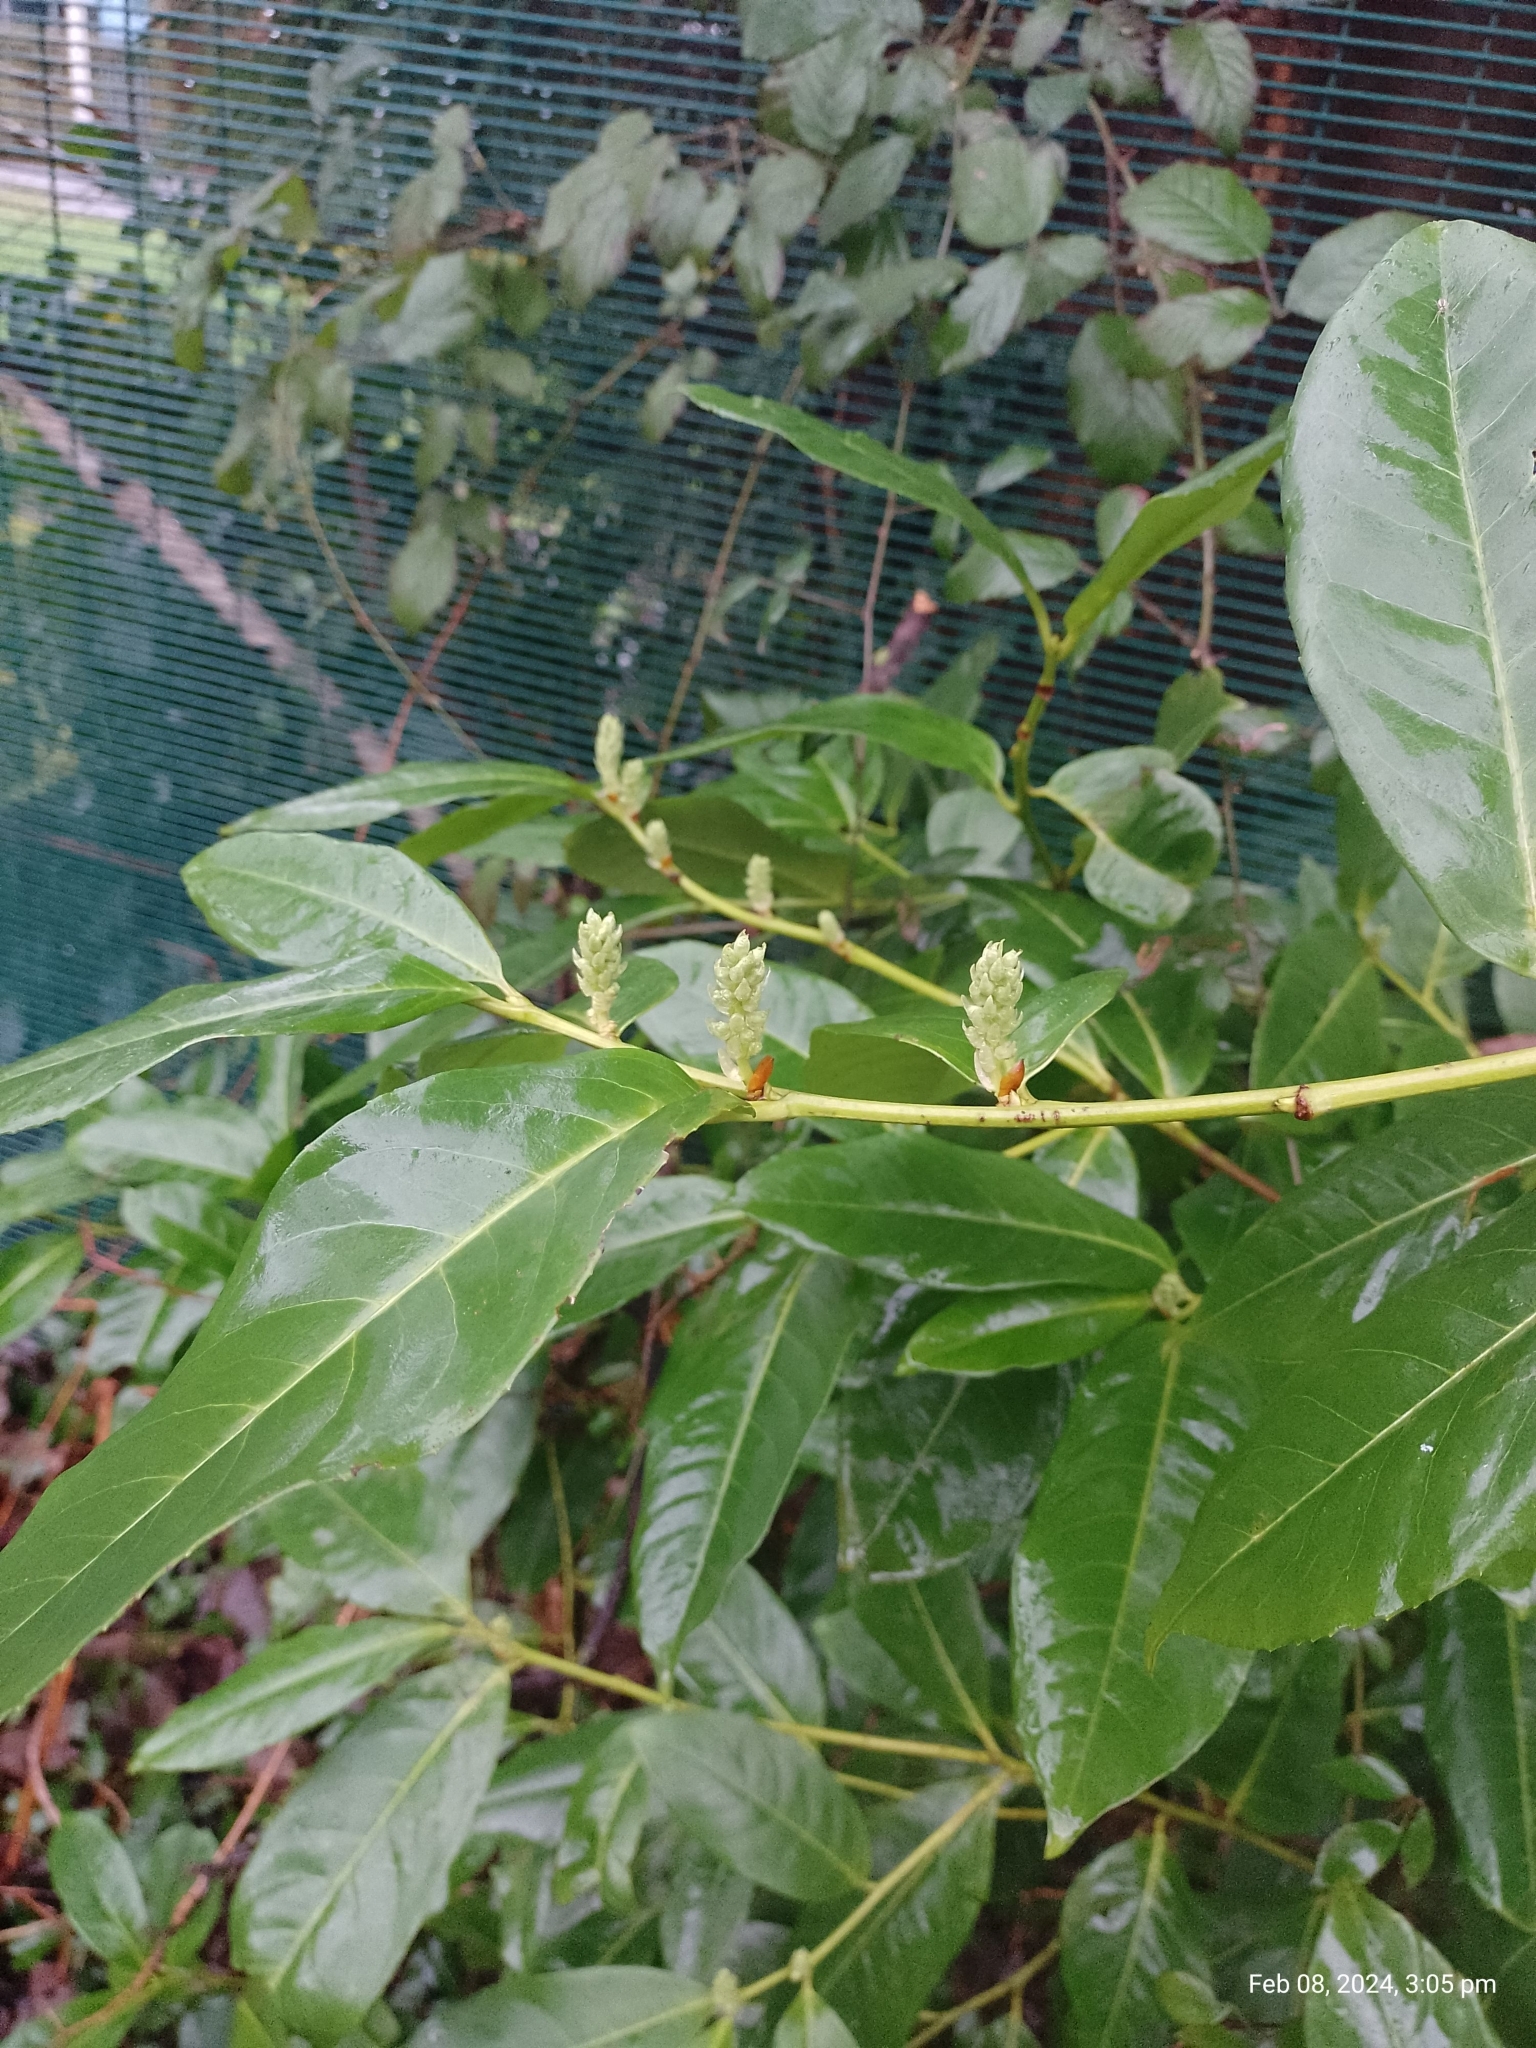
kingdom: Plantae
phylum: Tracheophyta
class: Magnoliopsida
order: Rosales
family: Rosaceae
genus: Prunus
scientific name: Prunus laurocerasus
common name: Cherry laurel
